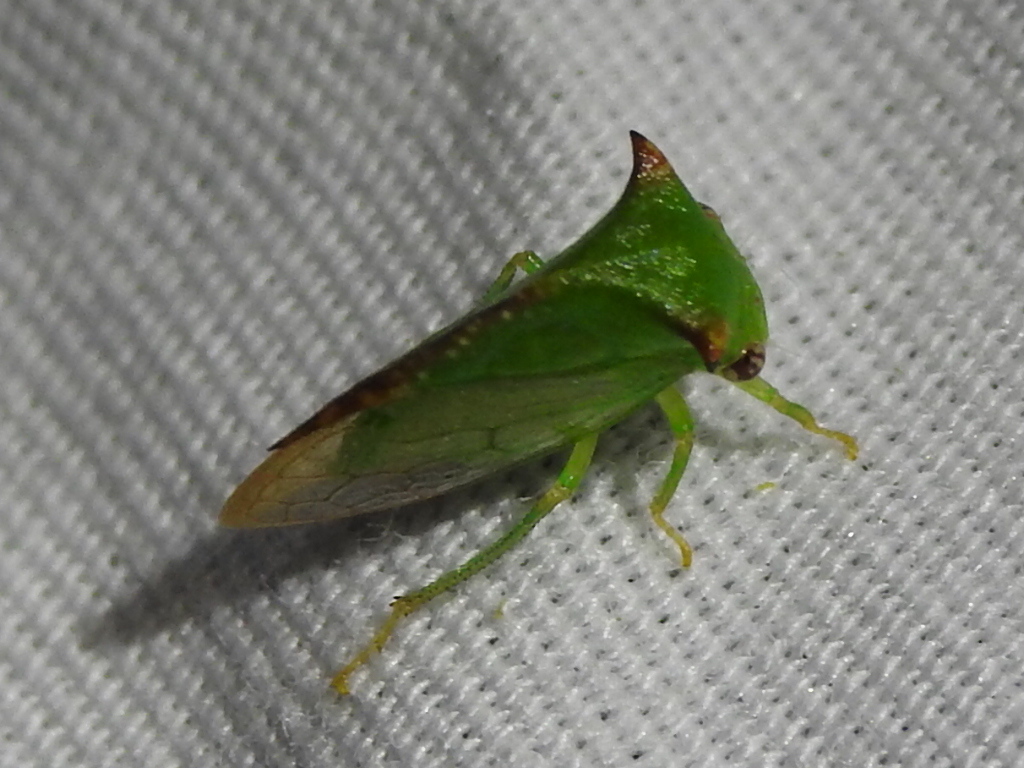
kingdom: Animalia
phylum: Arthropoda
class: Insecta
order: Hemiptera
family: Membracidae
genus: Stictocephala
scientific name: Stictocephala militaris
